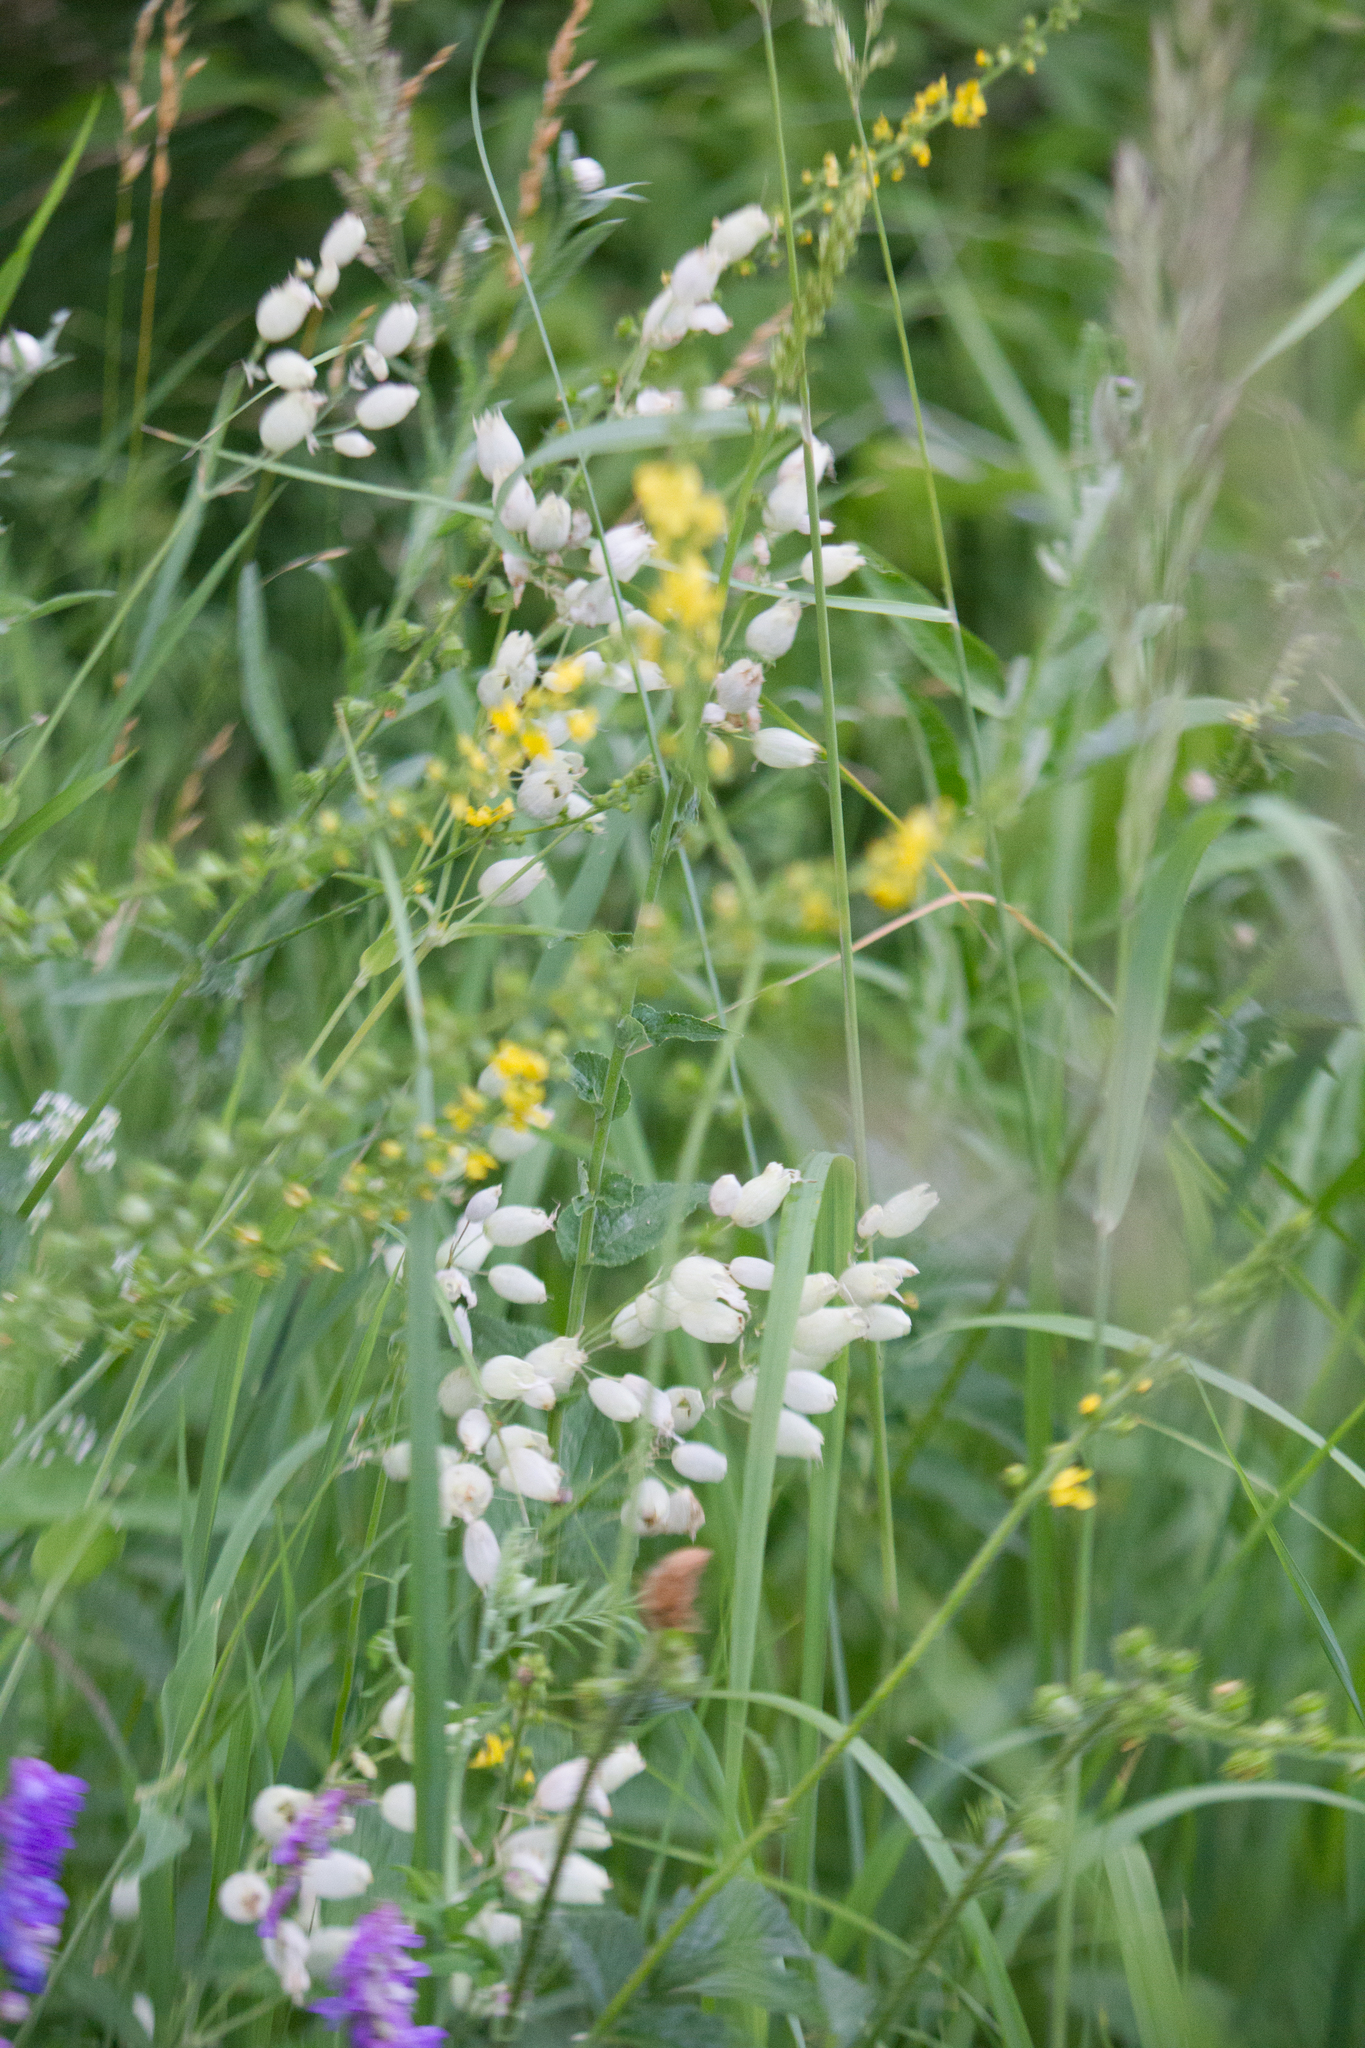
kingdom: Plantae
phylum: Tracheophyta
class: Magnoliopsida
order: Caryophyllales
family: Caryophyllaceae
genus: Silene
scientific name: Silene vulgaris
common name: Bladder campion
